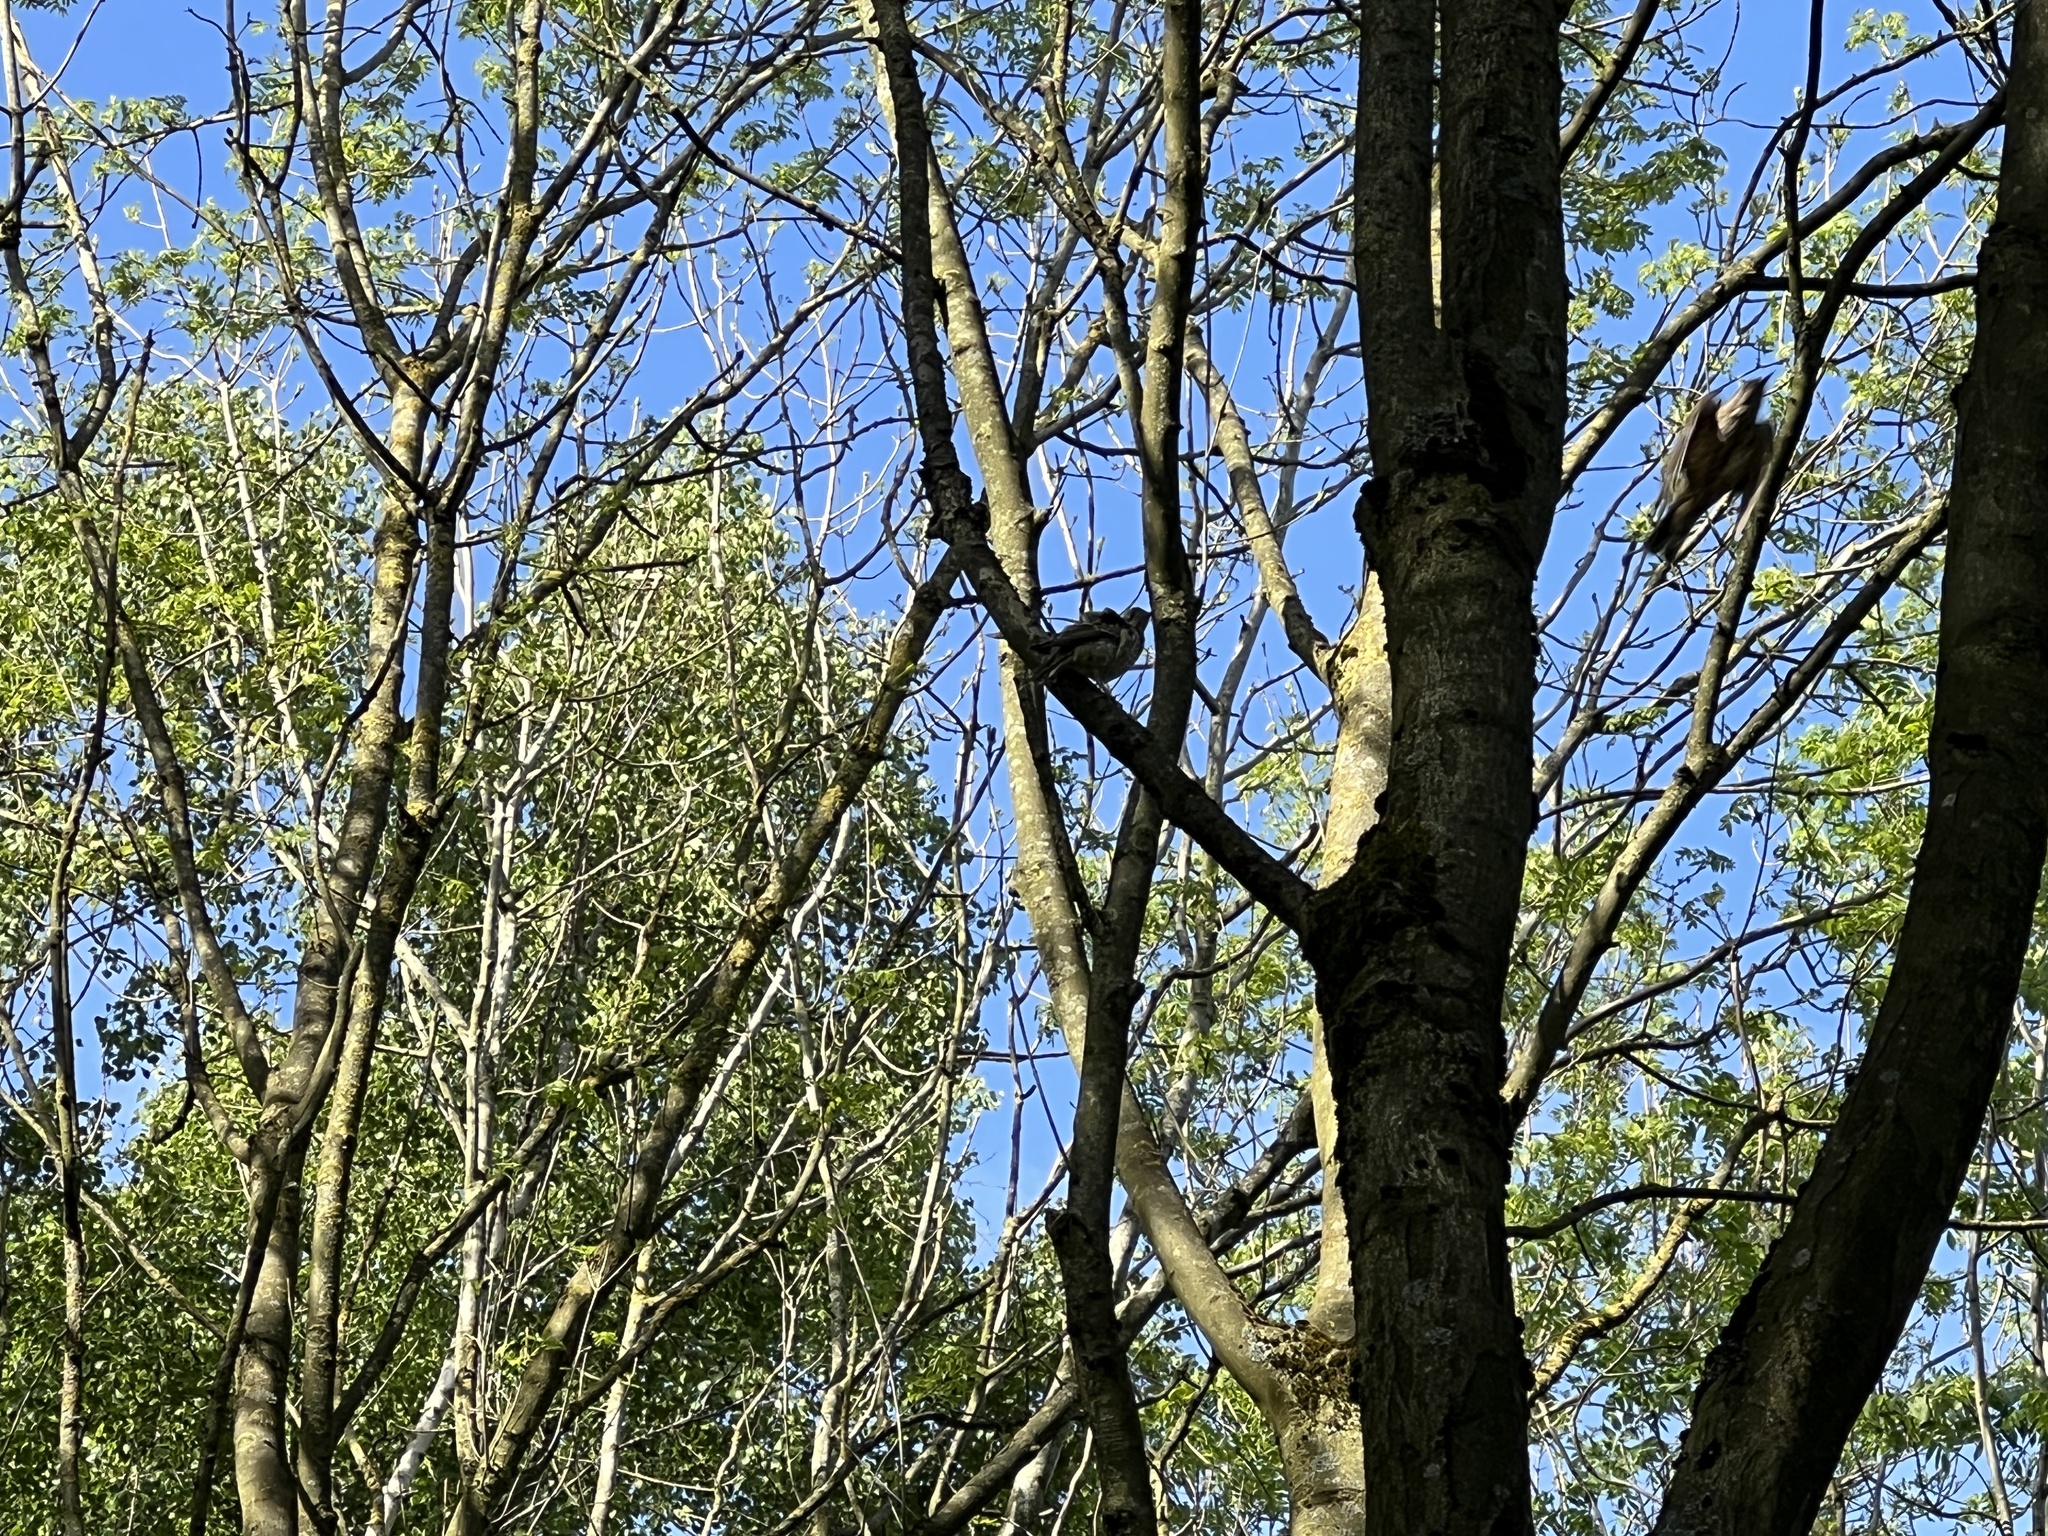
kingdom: Animalia
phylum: Chordata
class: Aves
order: Passeriformes
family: Turdidae
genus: Turdus
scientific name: Turdus viscivorus
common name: Mistle thrush
